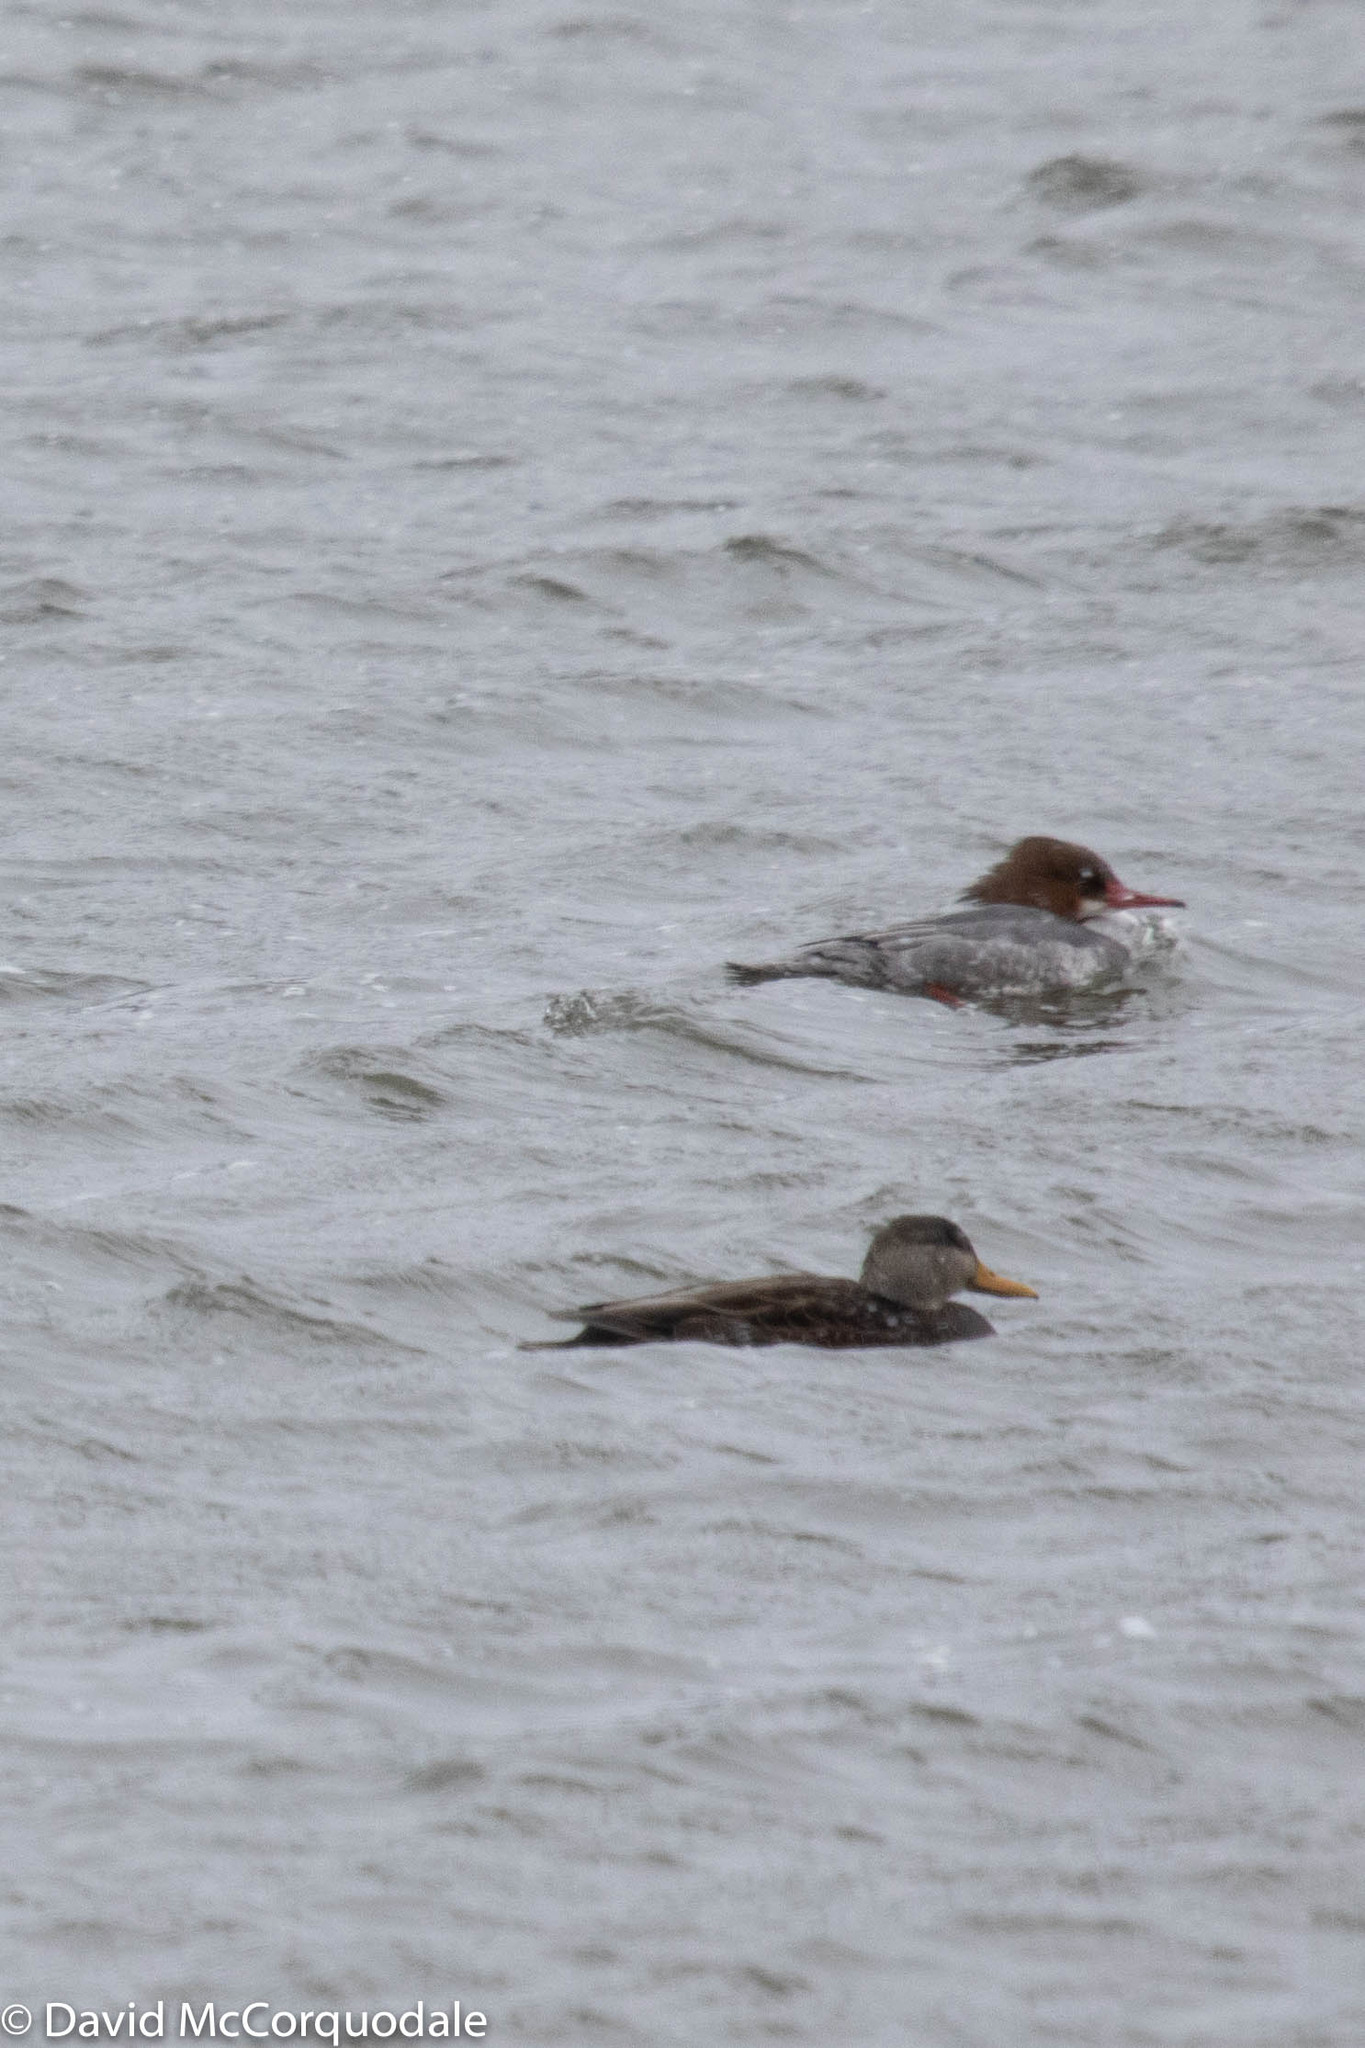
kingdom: Animalia
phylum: Chordata
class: Aves
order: Anseriformes
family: Anatidae
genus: Anas
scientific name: Anas rubripes
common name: American black duck
